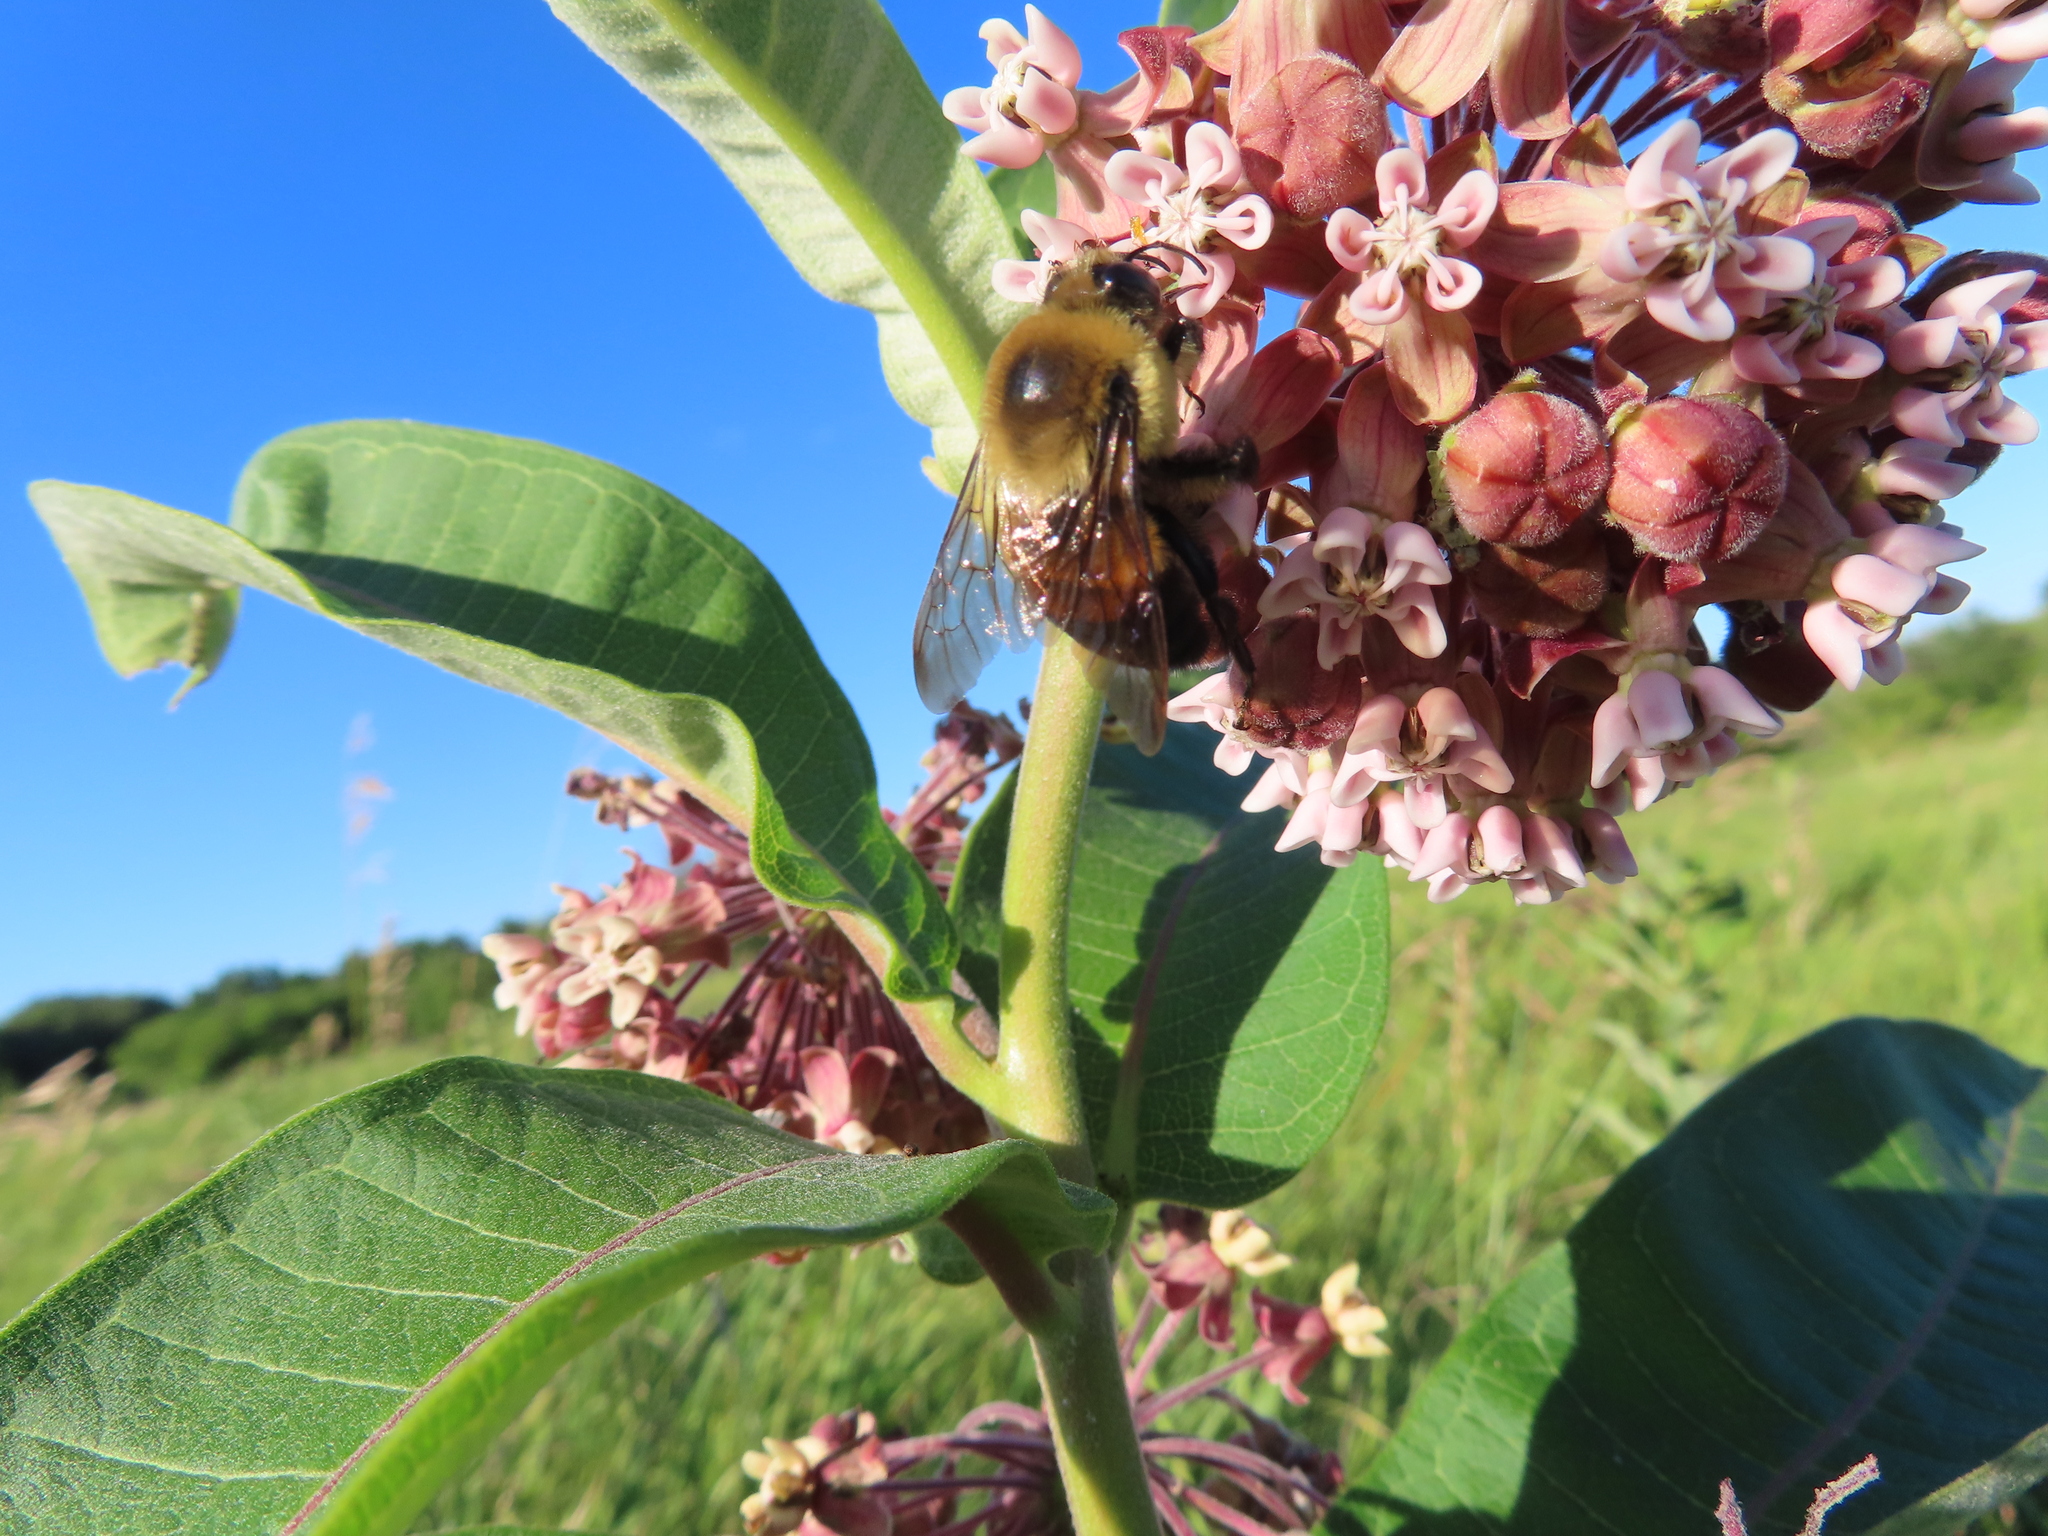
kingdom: Animalia
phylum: Arthropoda
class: Insecta
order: Hymenoptera
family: Apidae
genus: Bombus
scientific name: Bombus griseocollis
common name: Brown-belted bumble bee
